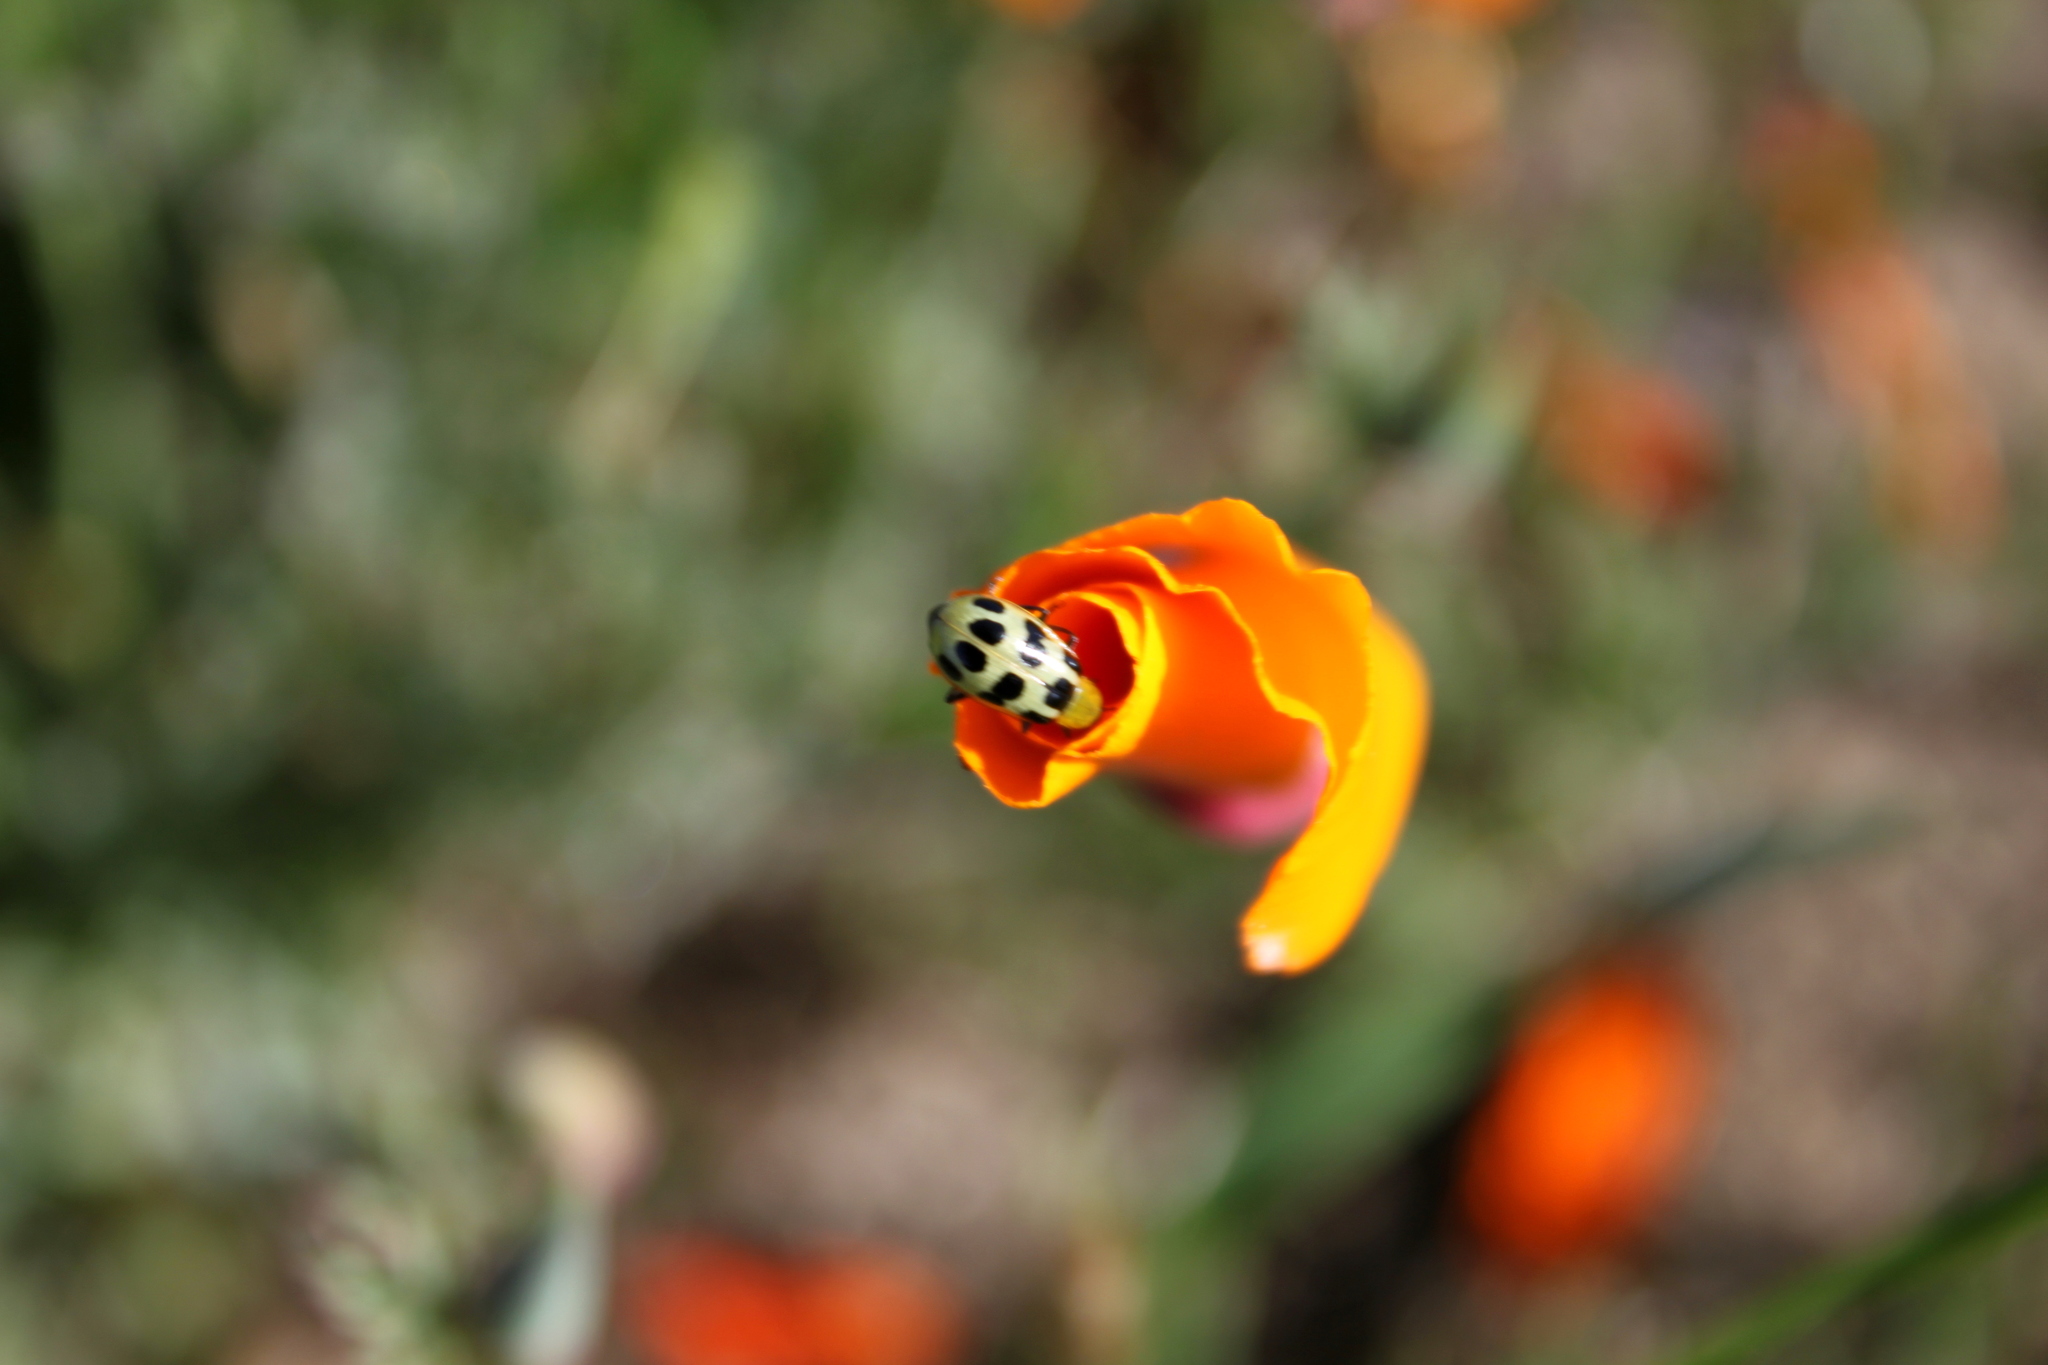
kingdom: Animalia
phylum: Arthropoda
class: Insecta
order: Coleoptera
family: Chrysomelidae
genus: Diabrotica
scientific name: Diabrotica undecimpunctata
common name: Spotted cucumber beetle
